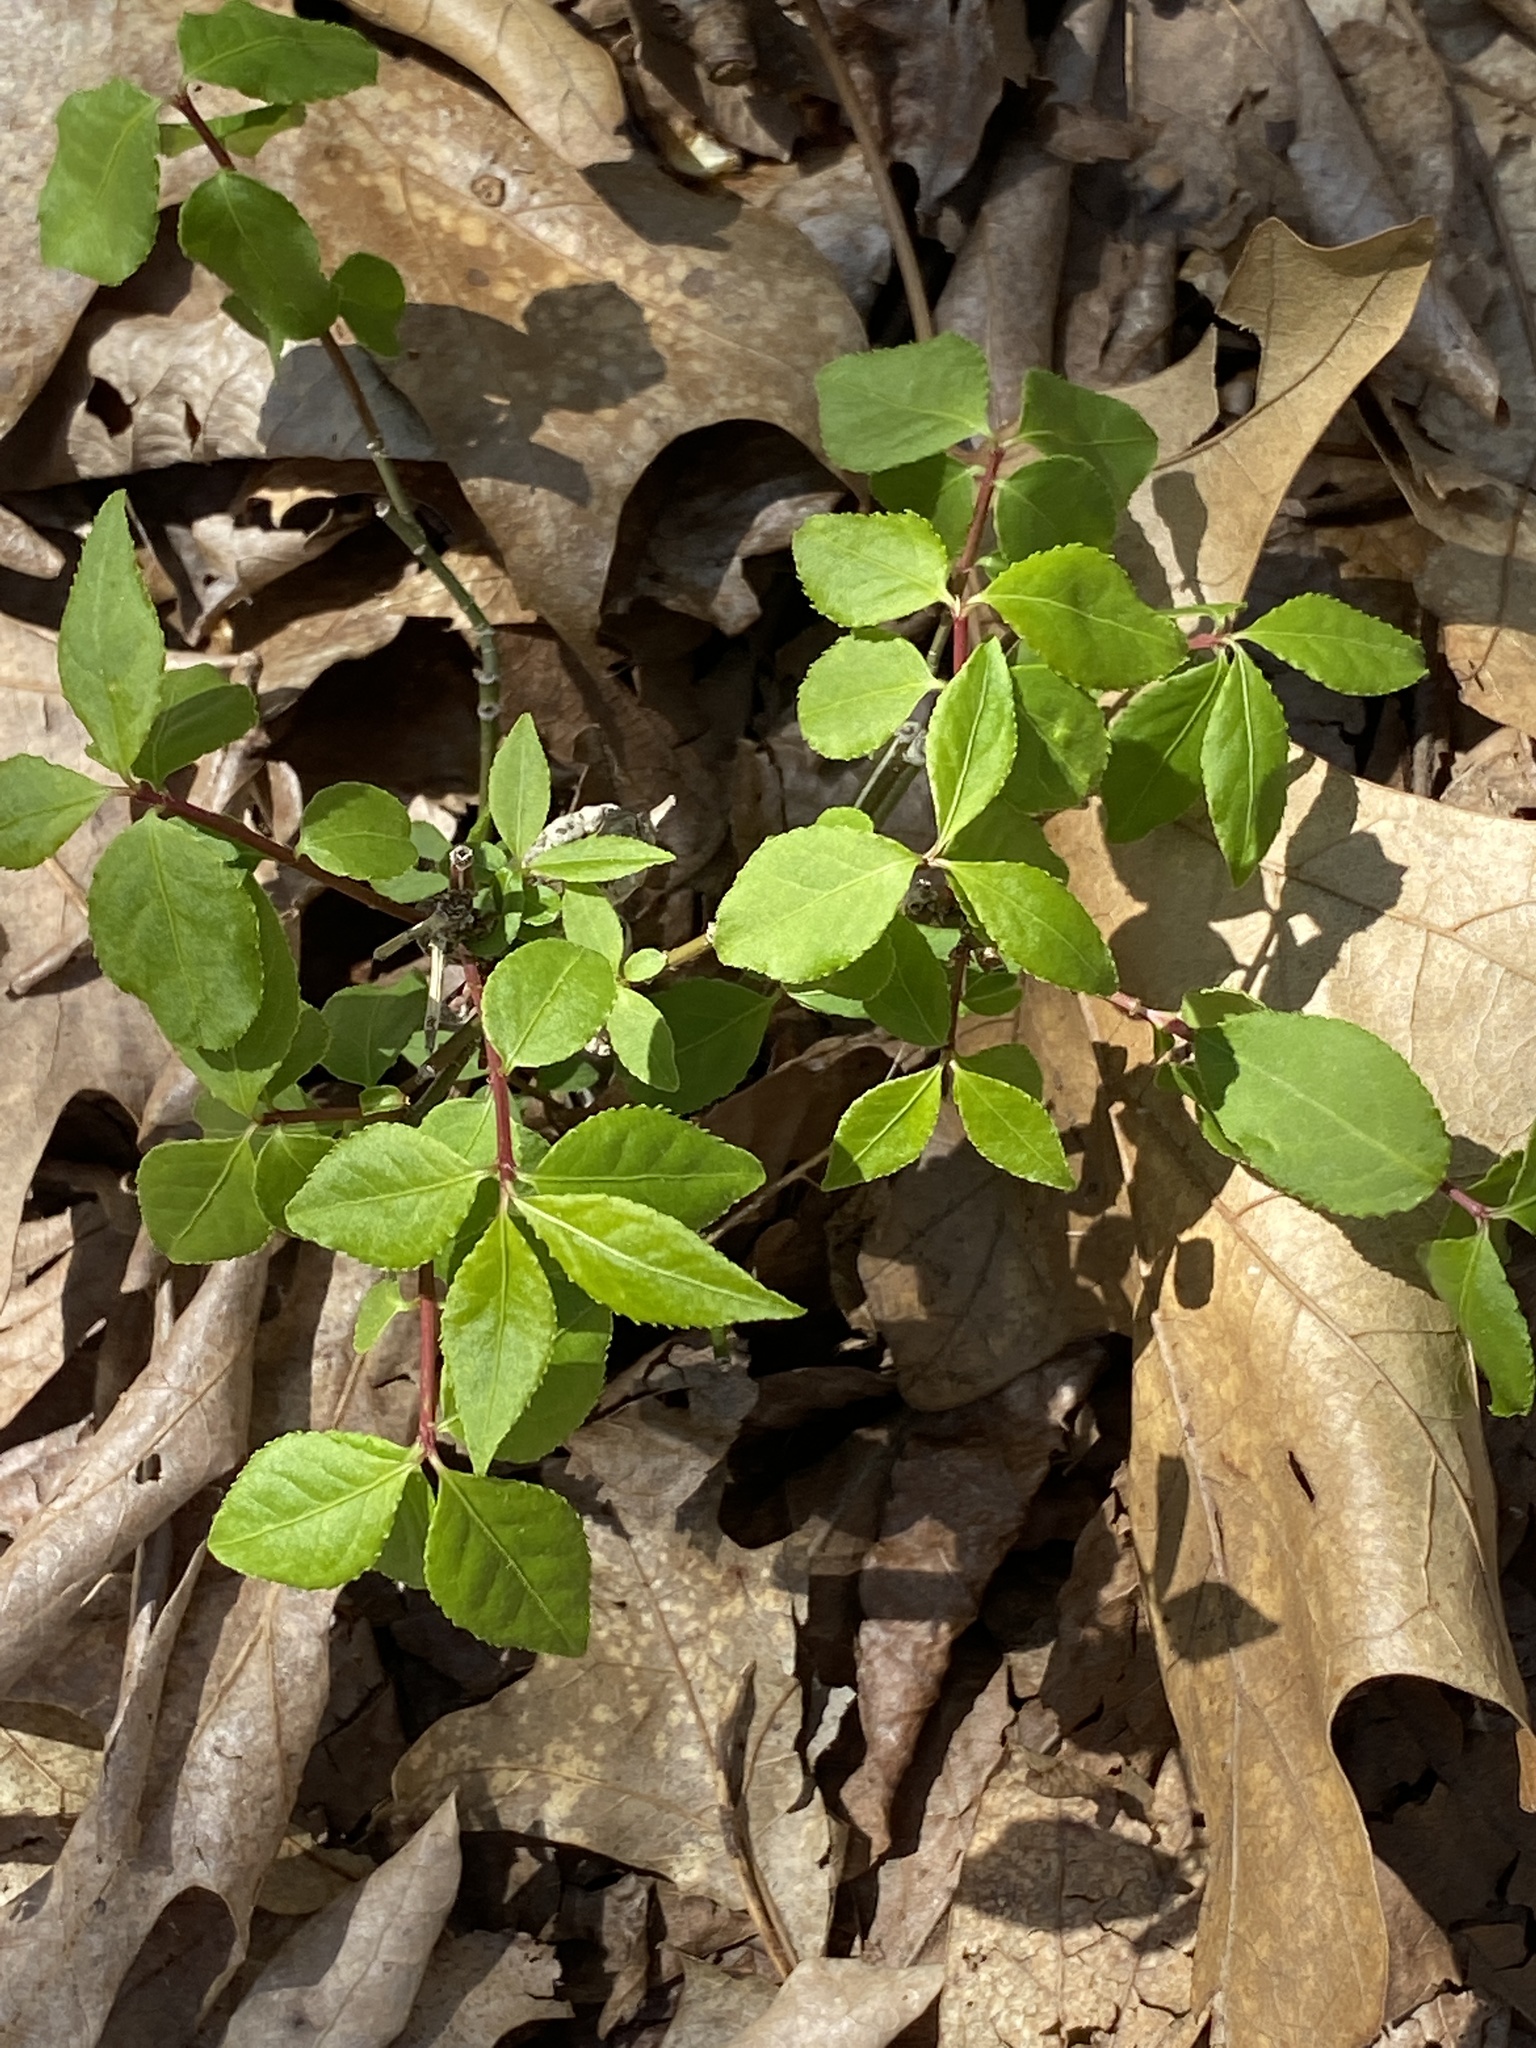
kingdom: Plantae
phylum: Tracheophyta
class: Magnoliopsida
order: Celastrales
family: Celastraceae
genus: Euonymus
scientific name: Euonymus alatus
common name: Winged euonymus
